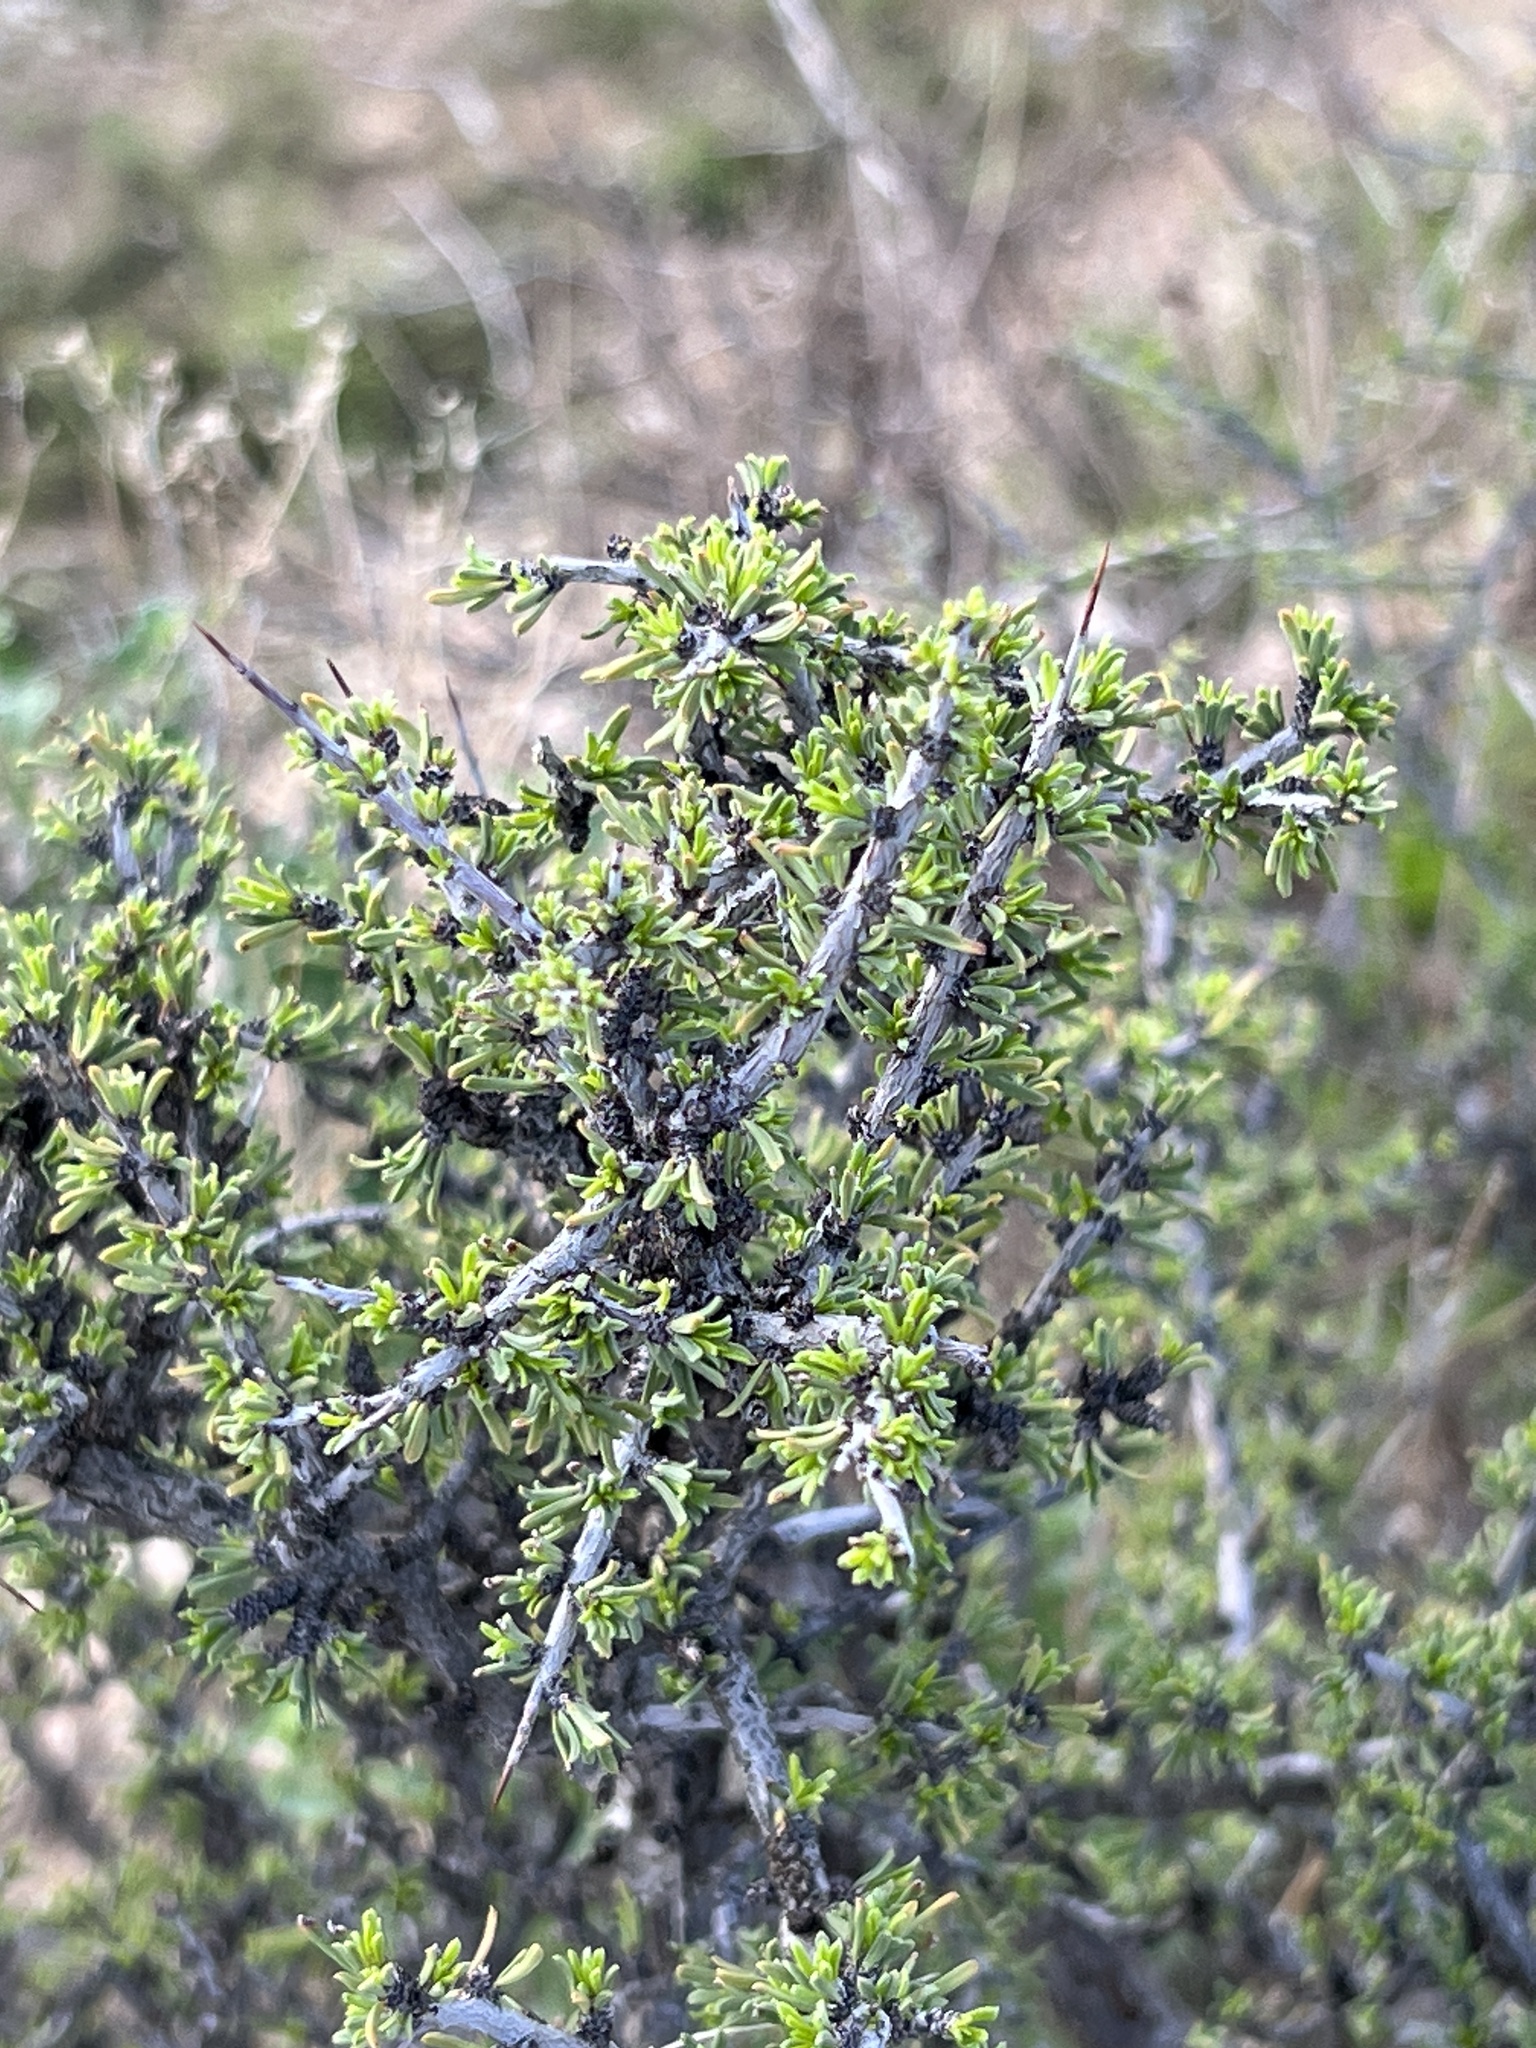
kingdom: Plantae
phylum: Tracheophyta
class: Magnoliopsida
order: Rosales
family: Rhamnaceae
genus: Condalia
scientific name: Condalia ericoides
